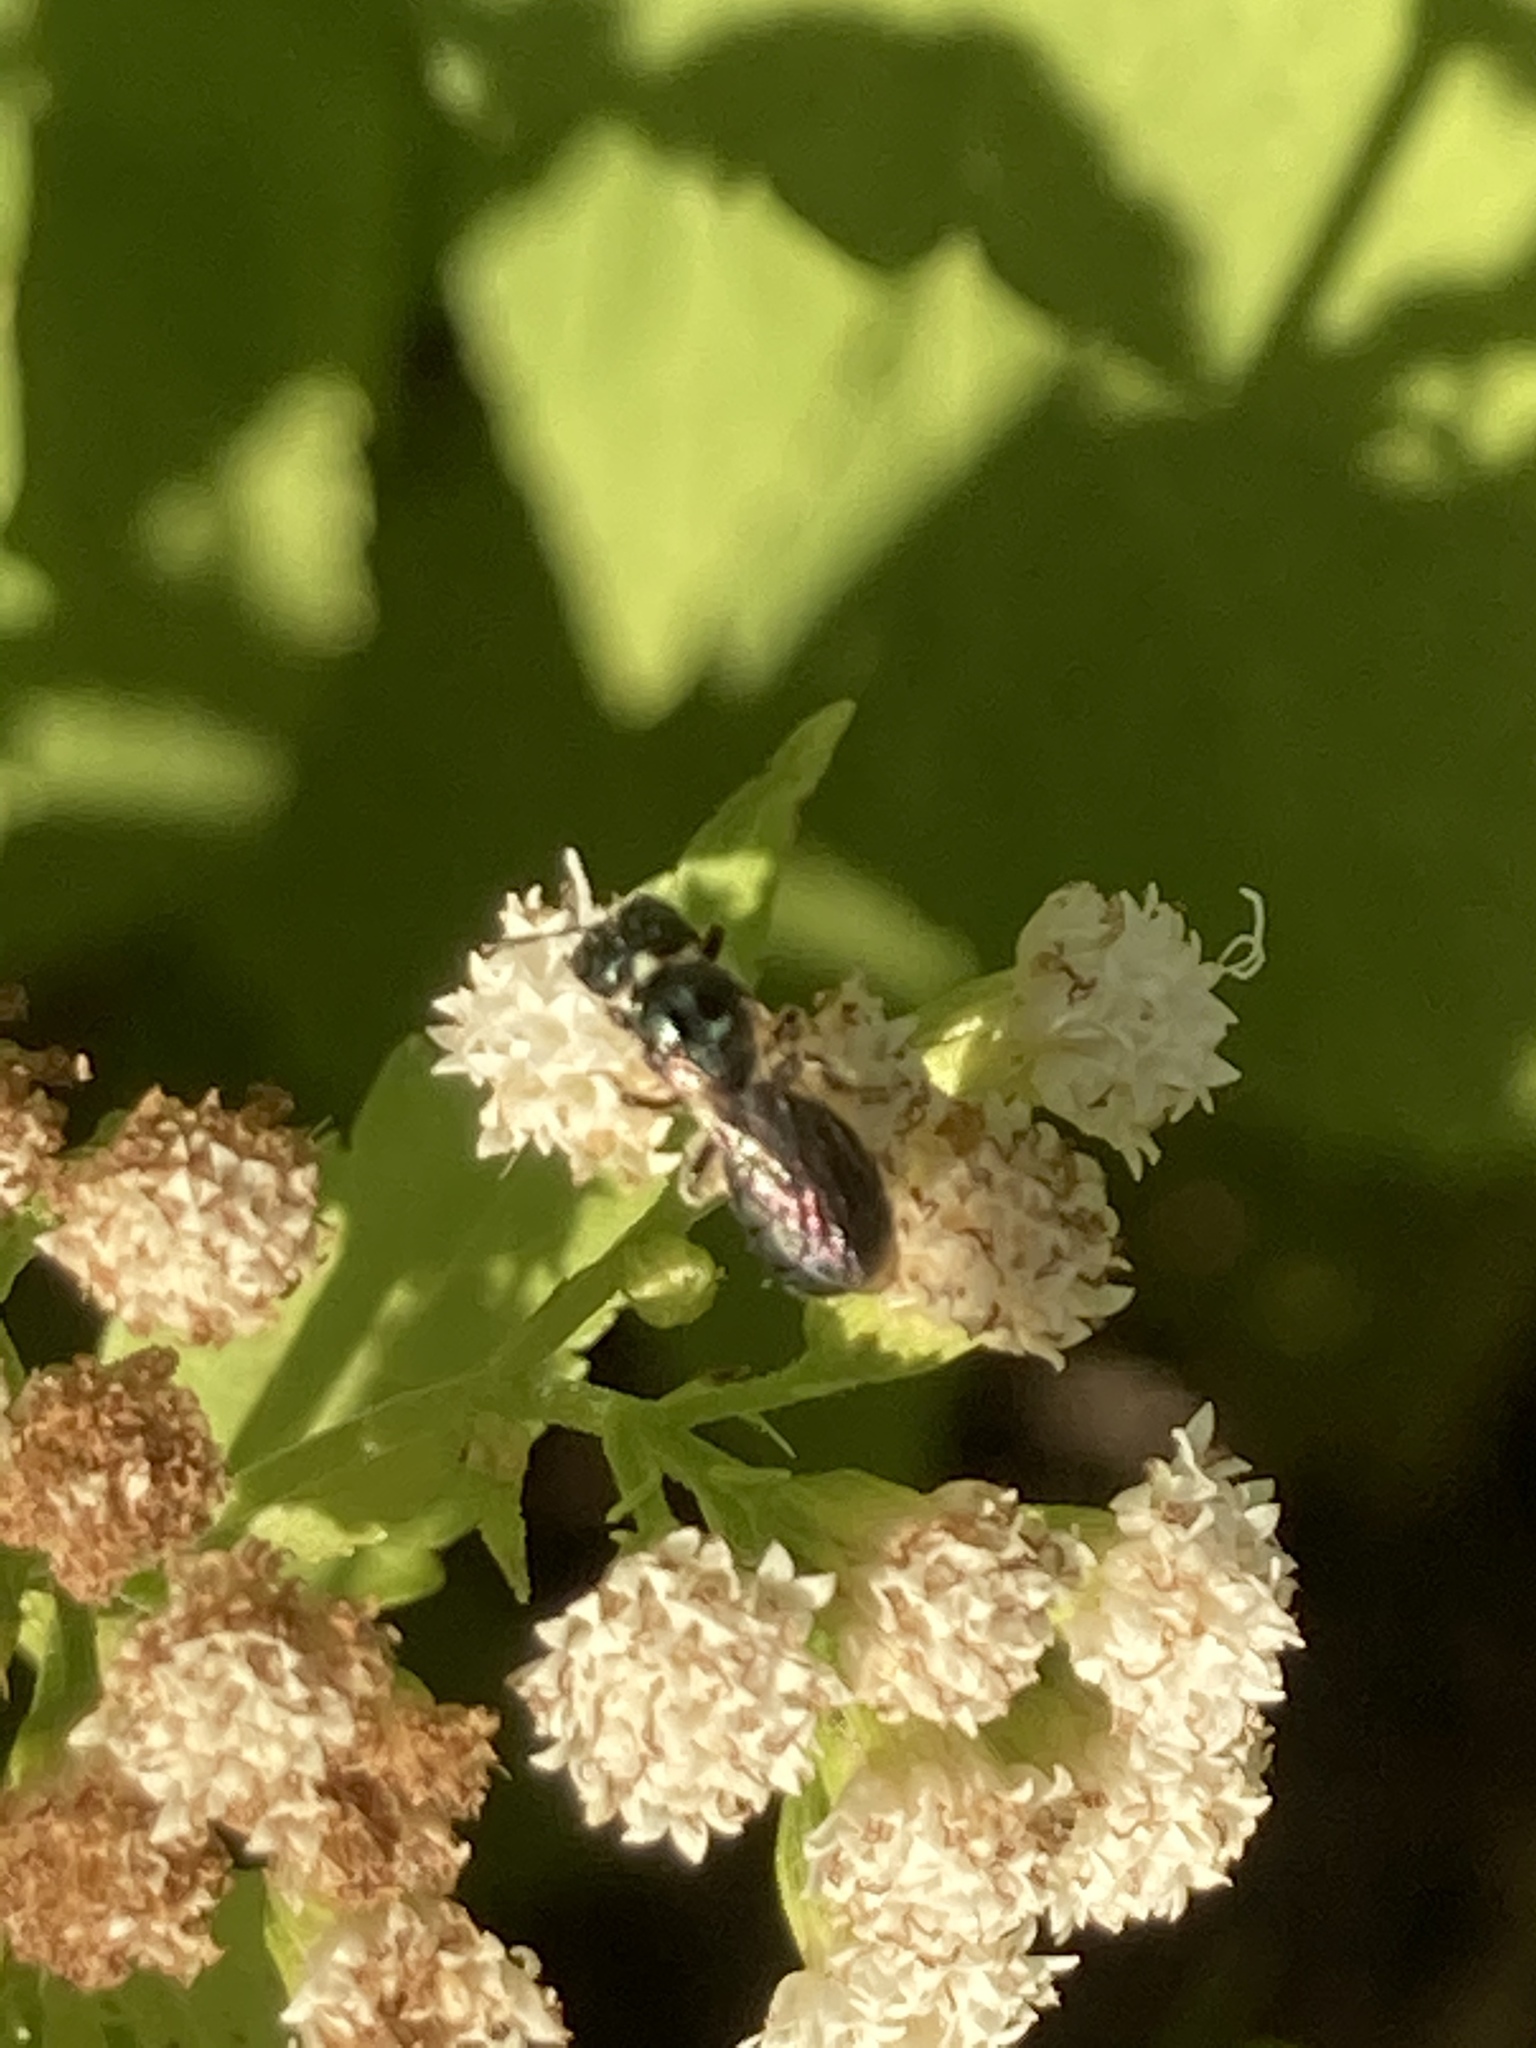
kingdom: Animalia
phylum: Arthropoda
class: Insecta
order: Hymenoptera
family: Apidae
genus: Zadontomerus
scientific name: Zadontomerus
